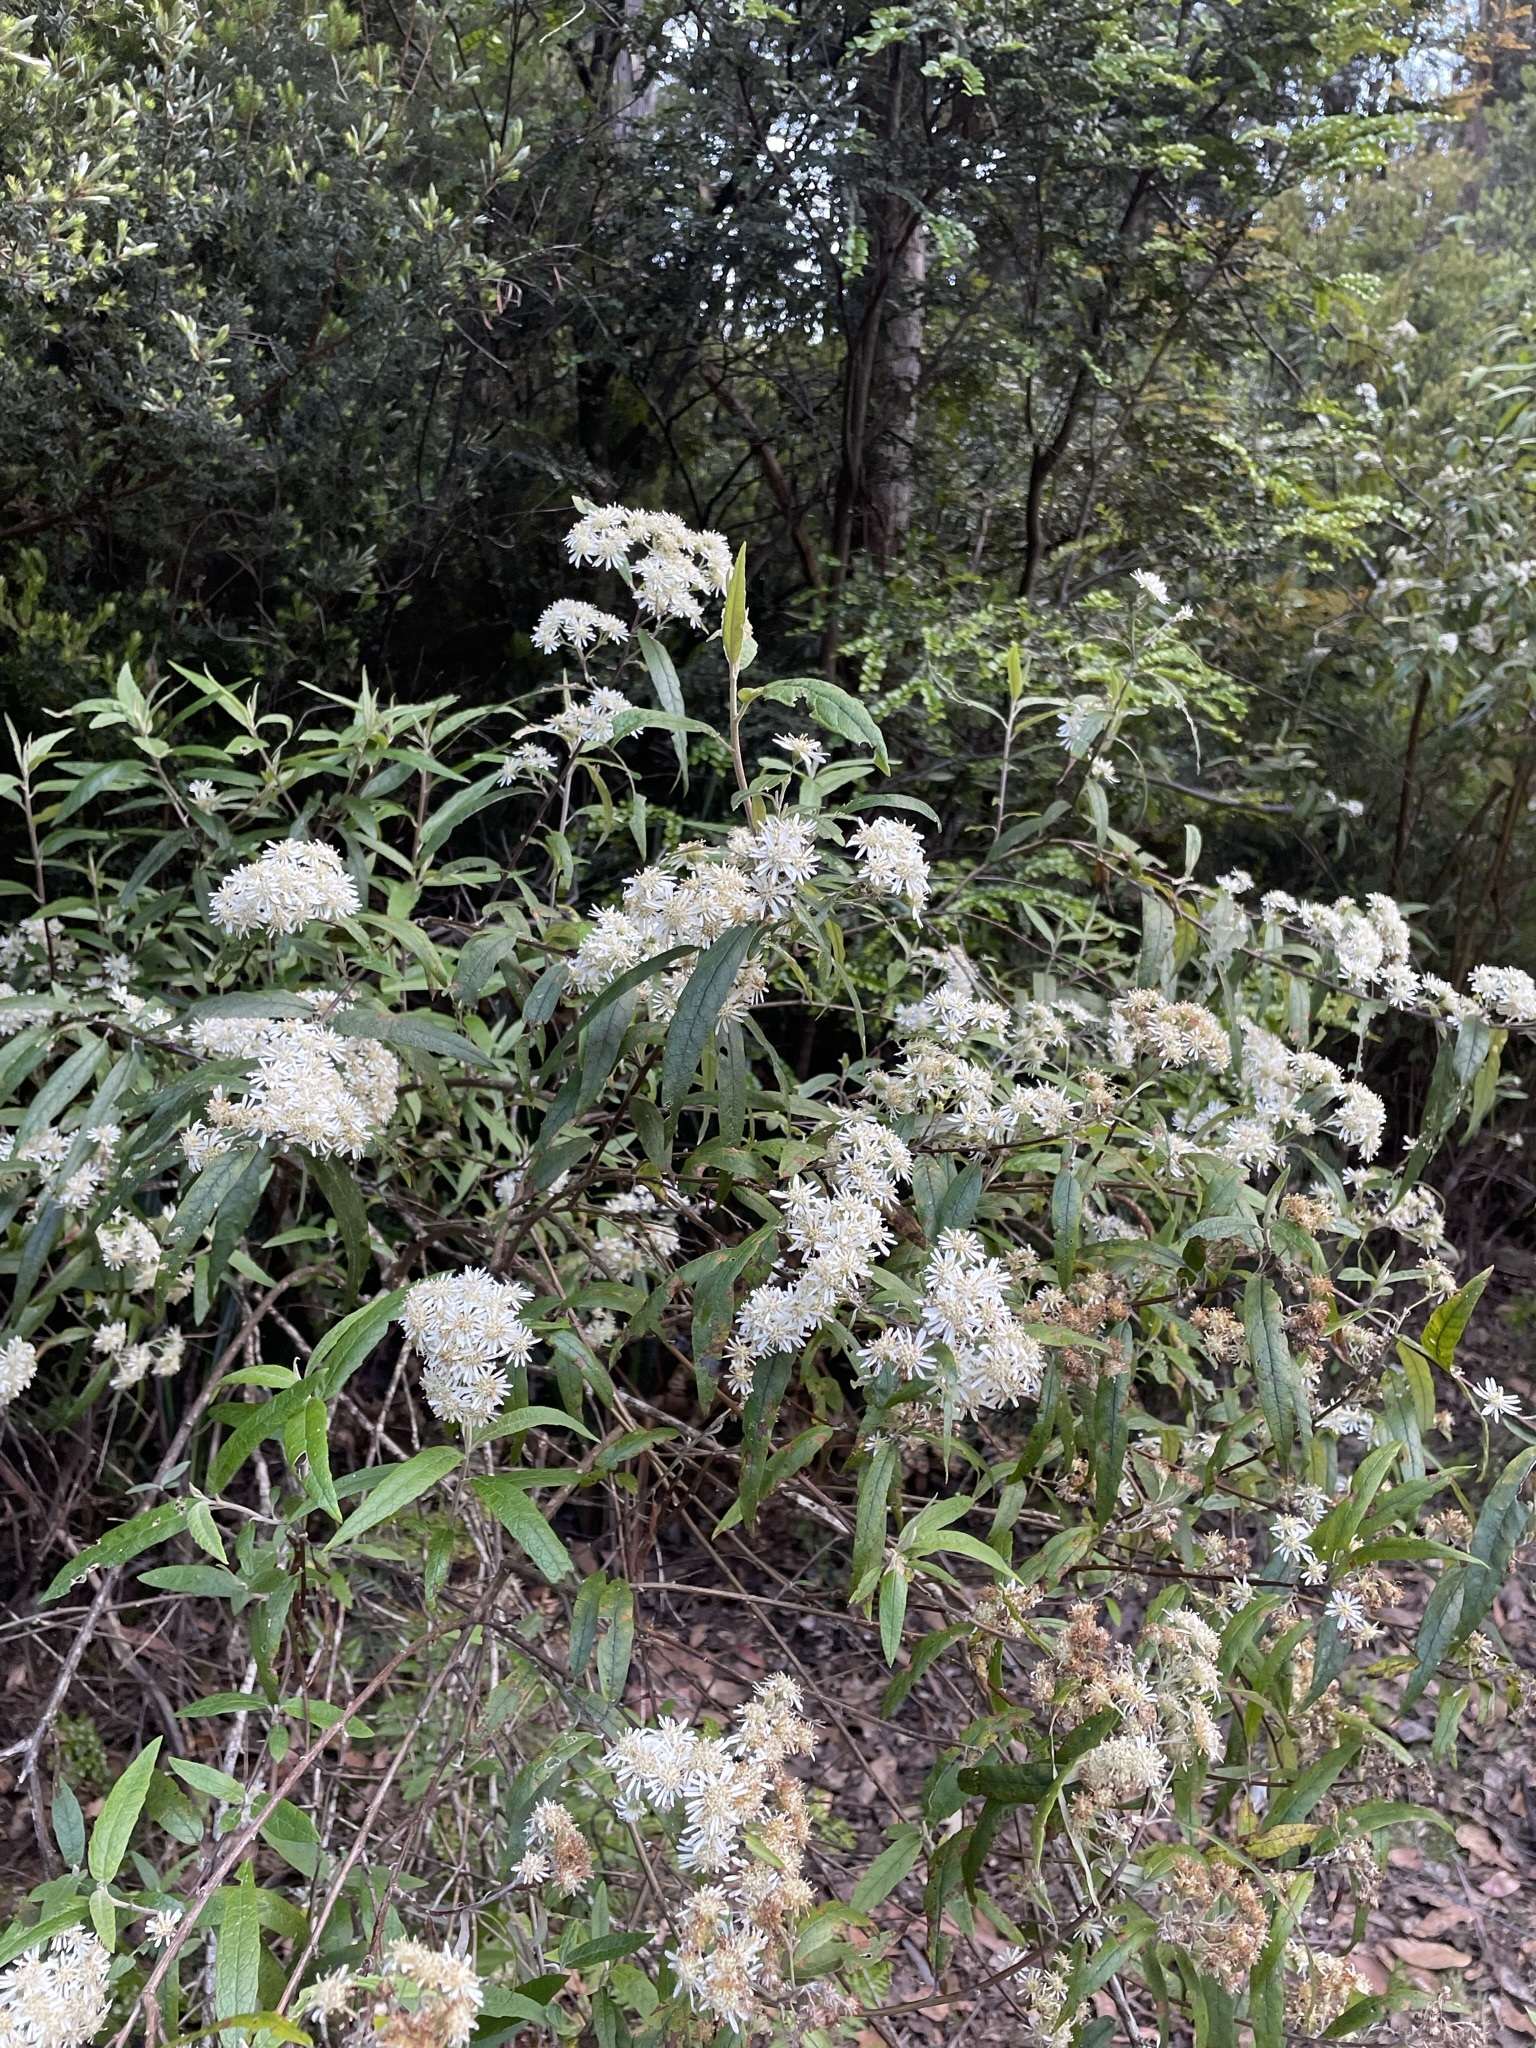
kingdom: Plantae
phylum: Tracheophyta
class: Magnoliopsida
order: Asterales
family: Asteraceae
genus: Olearia
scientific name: Olearia lirata
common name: Dusty daisybush
